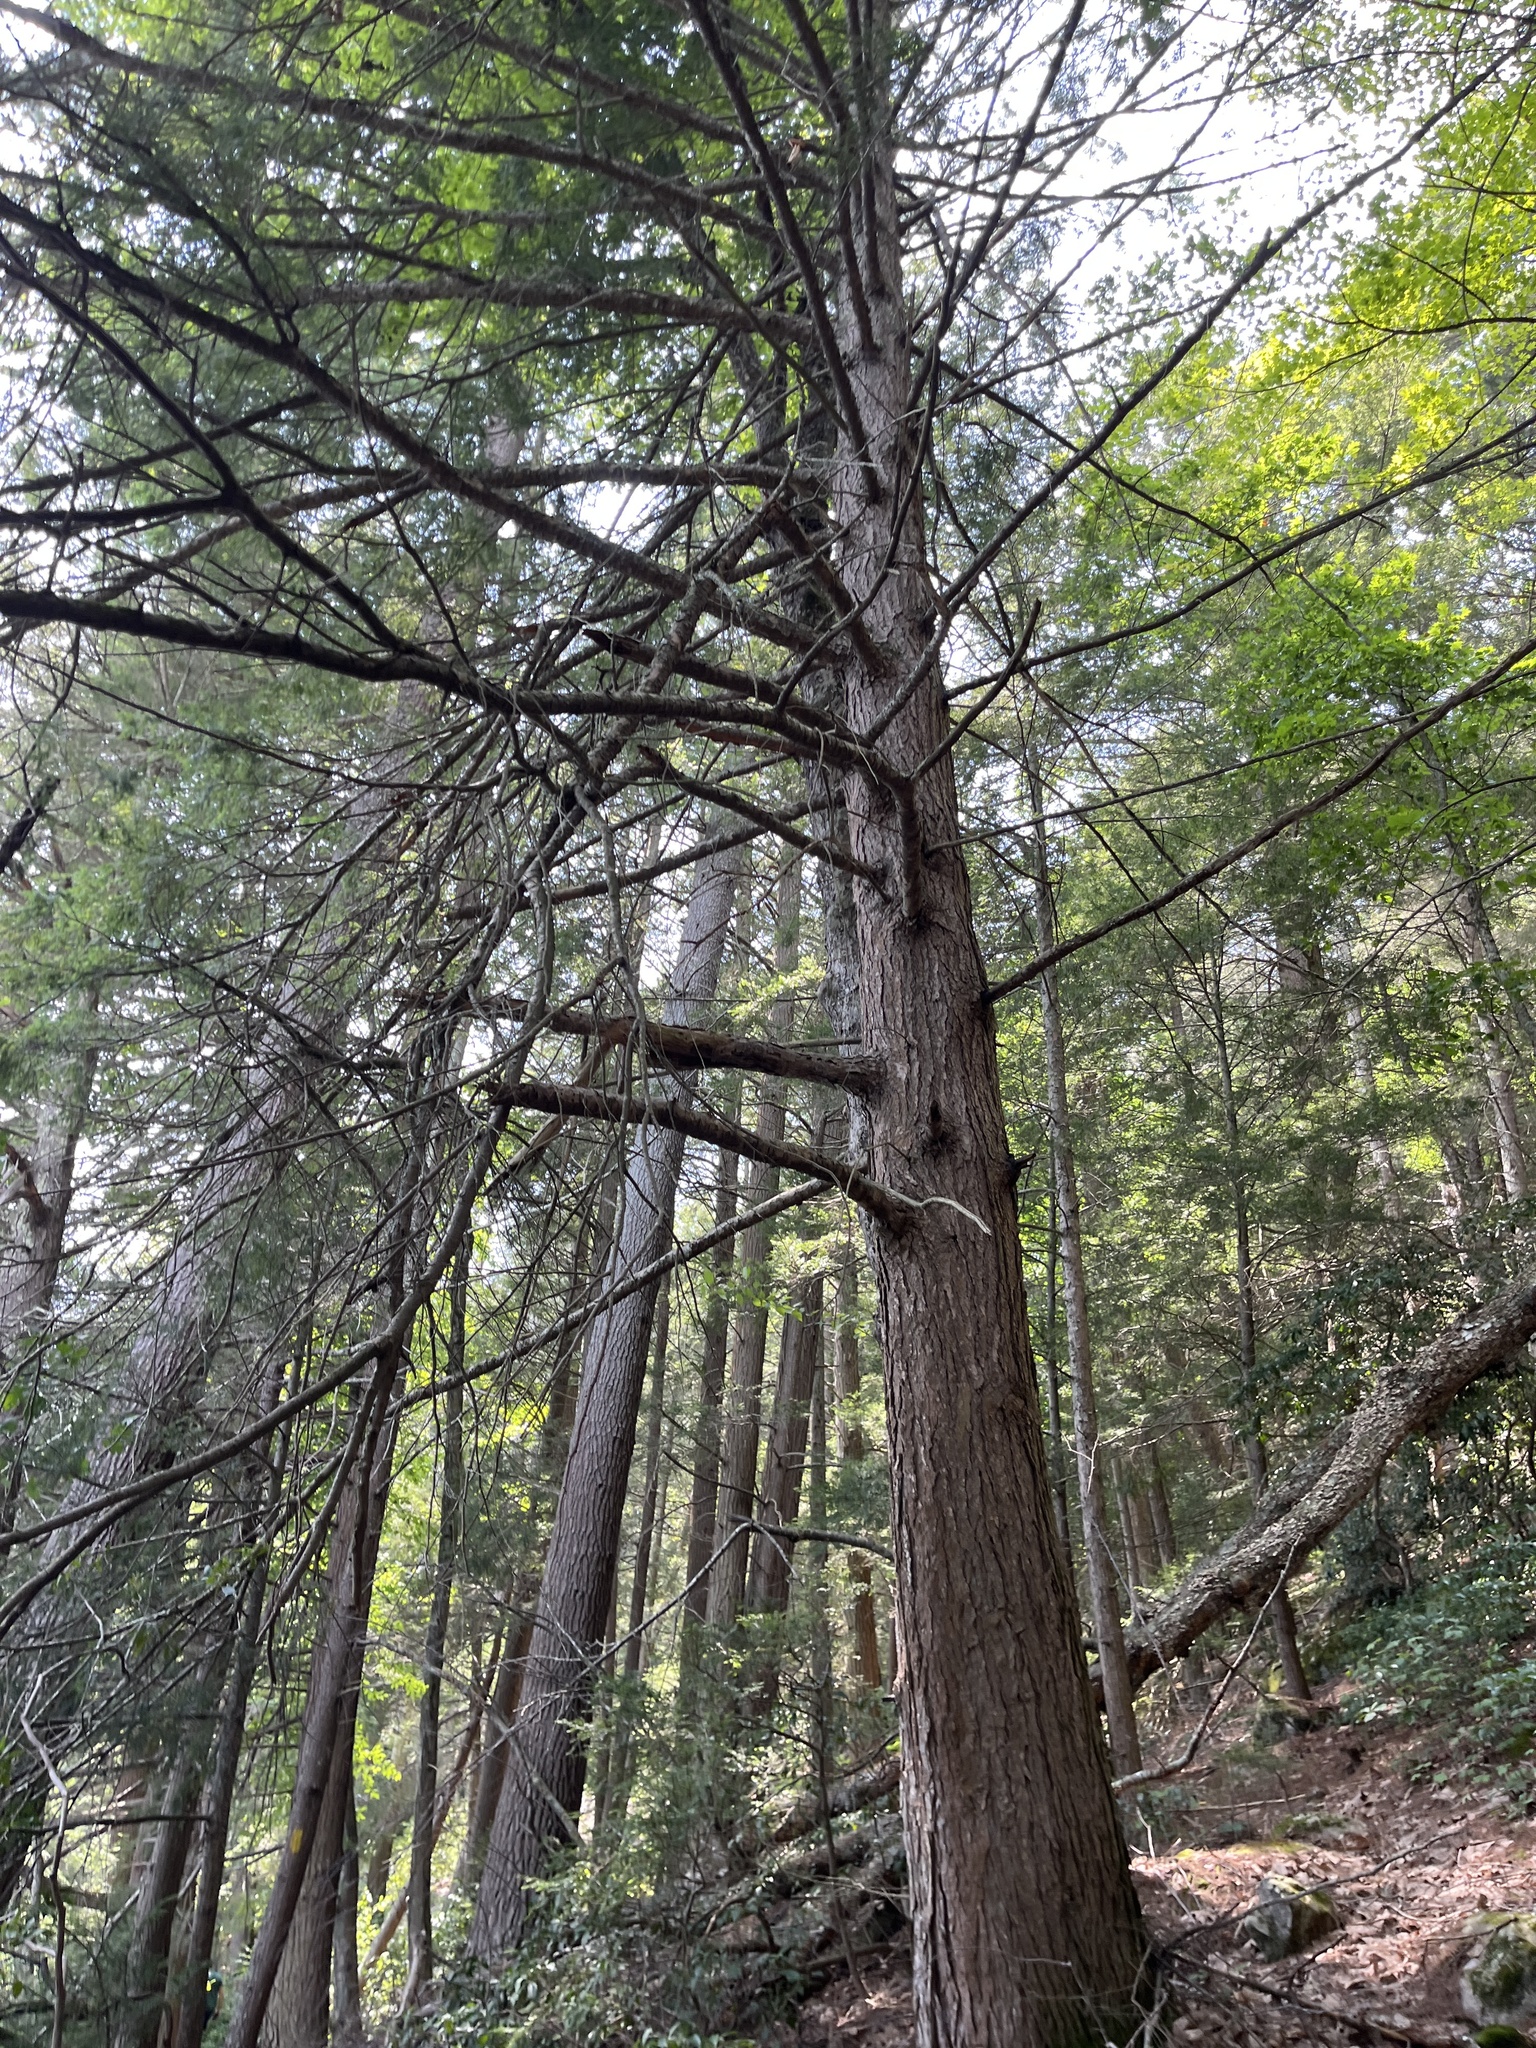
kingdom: Plantae
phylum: Tracheophyta
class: Pinopsida
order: Pinales
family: Pinaceae
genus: Tsuga
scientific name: Tsuga canadensis
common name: Eastern hemlock
